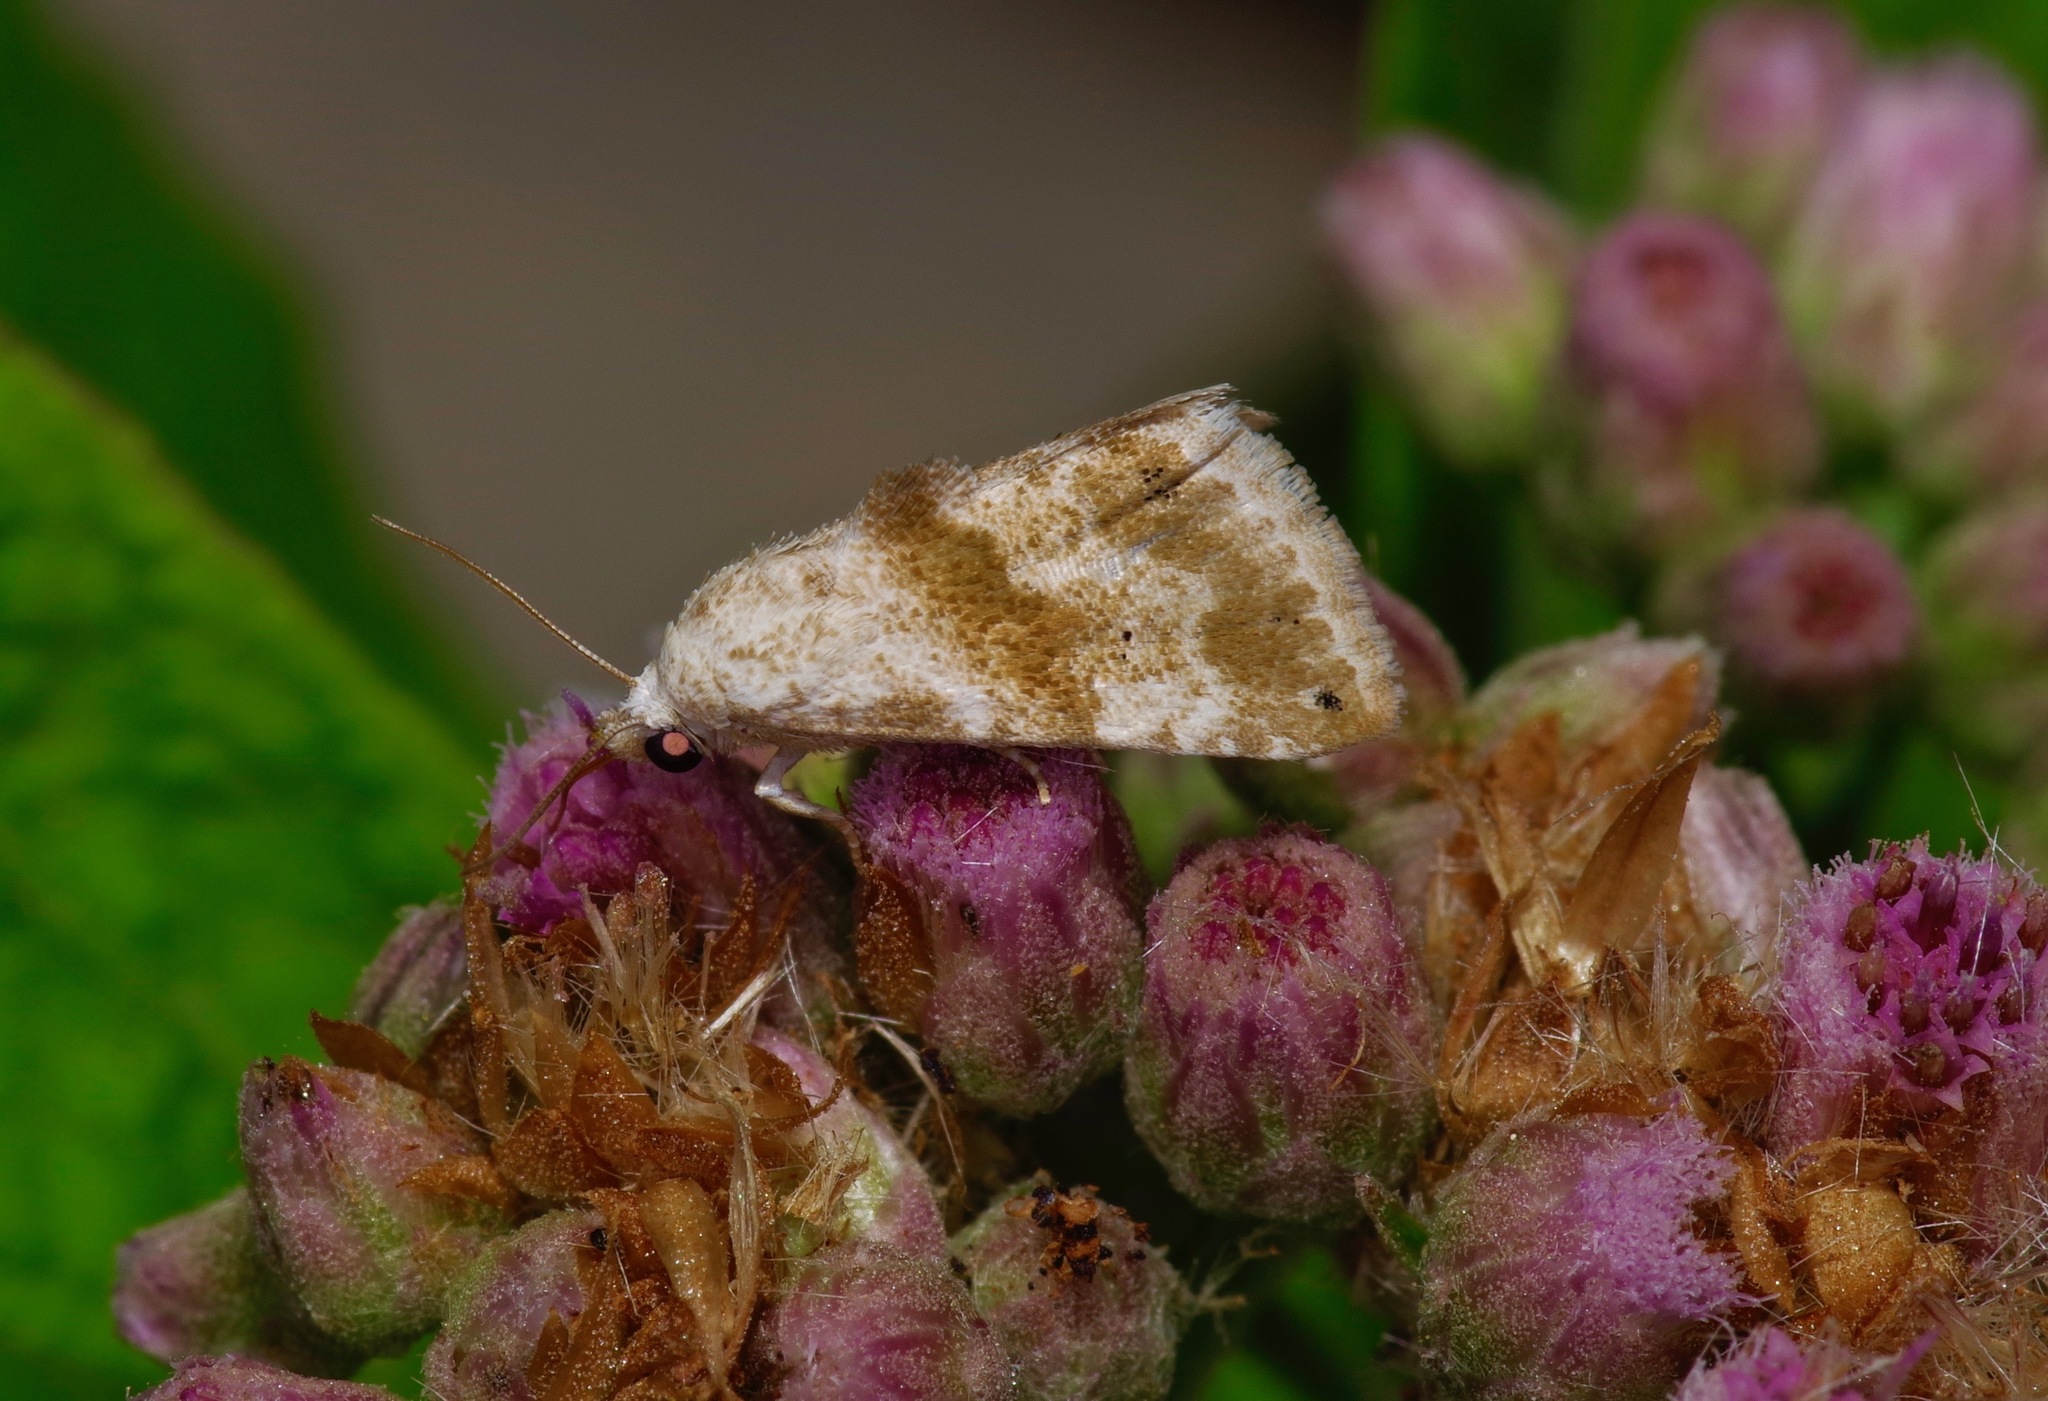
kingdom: Animalia
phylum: Arthropoda
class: Insecta
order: Lepidoptera
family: Noctuidae
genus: Eublemma
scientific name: Eublemma minima
